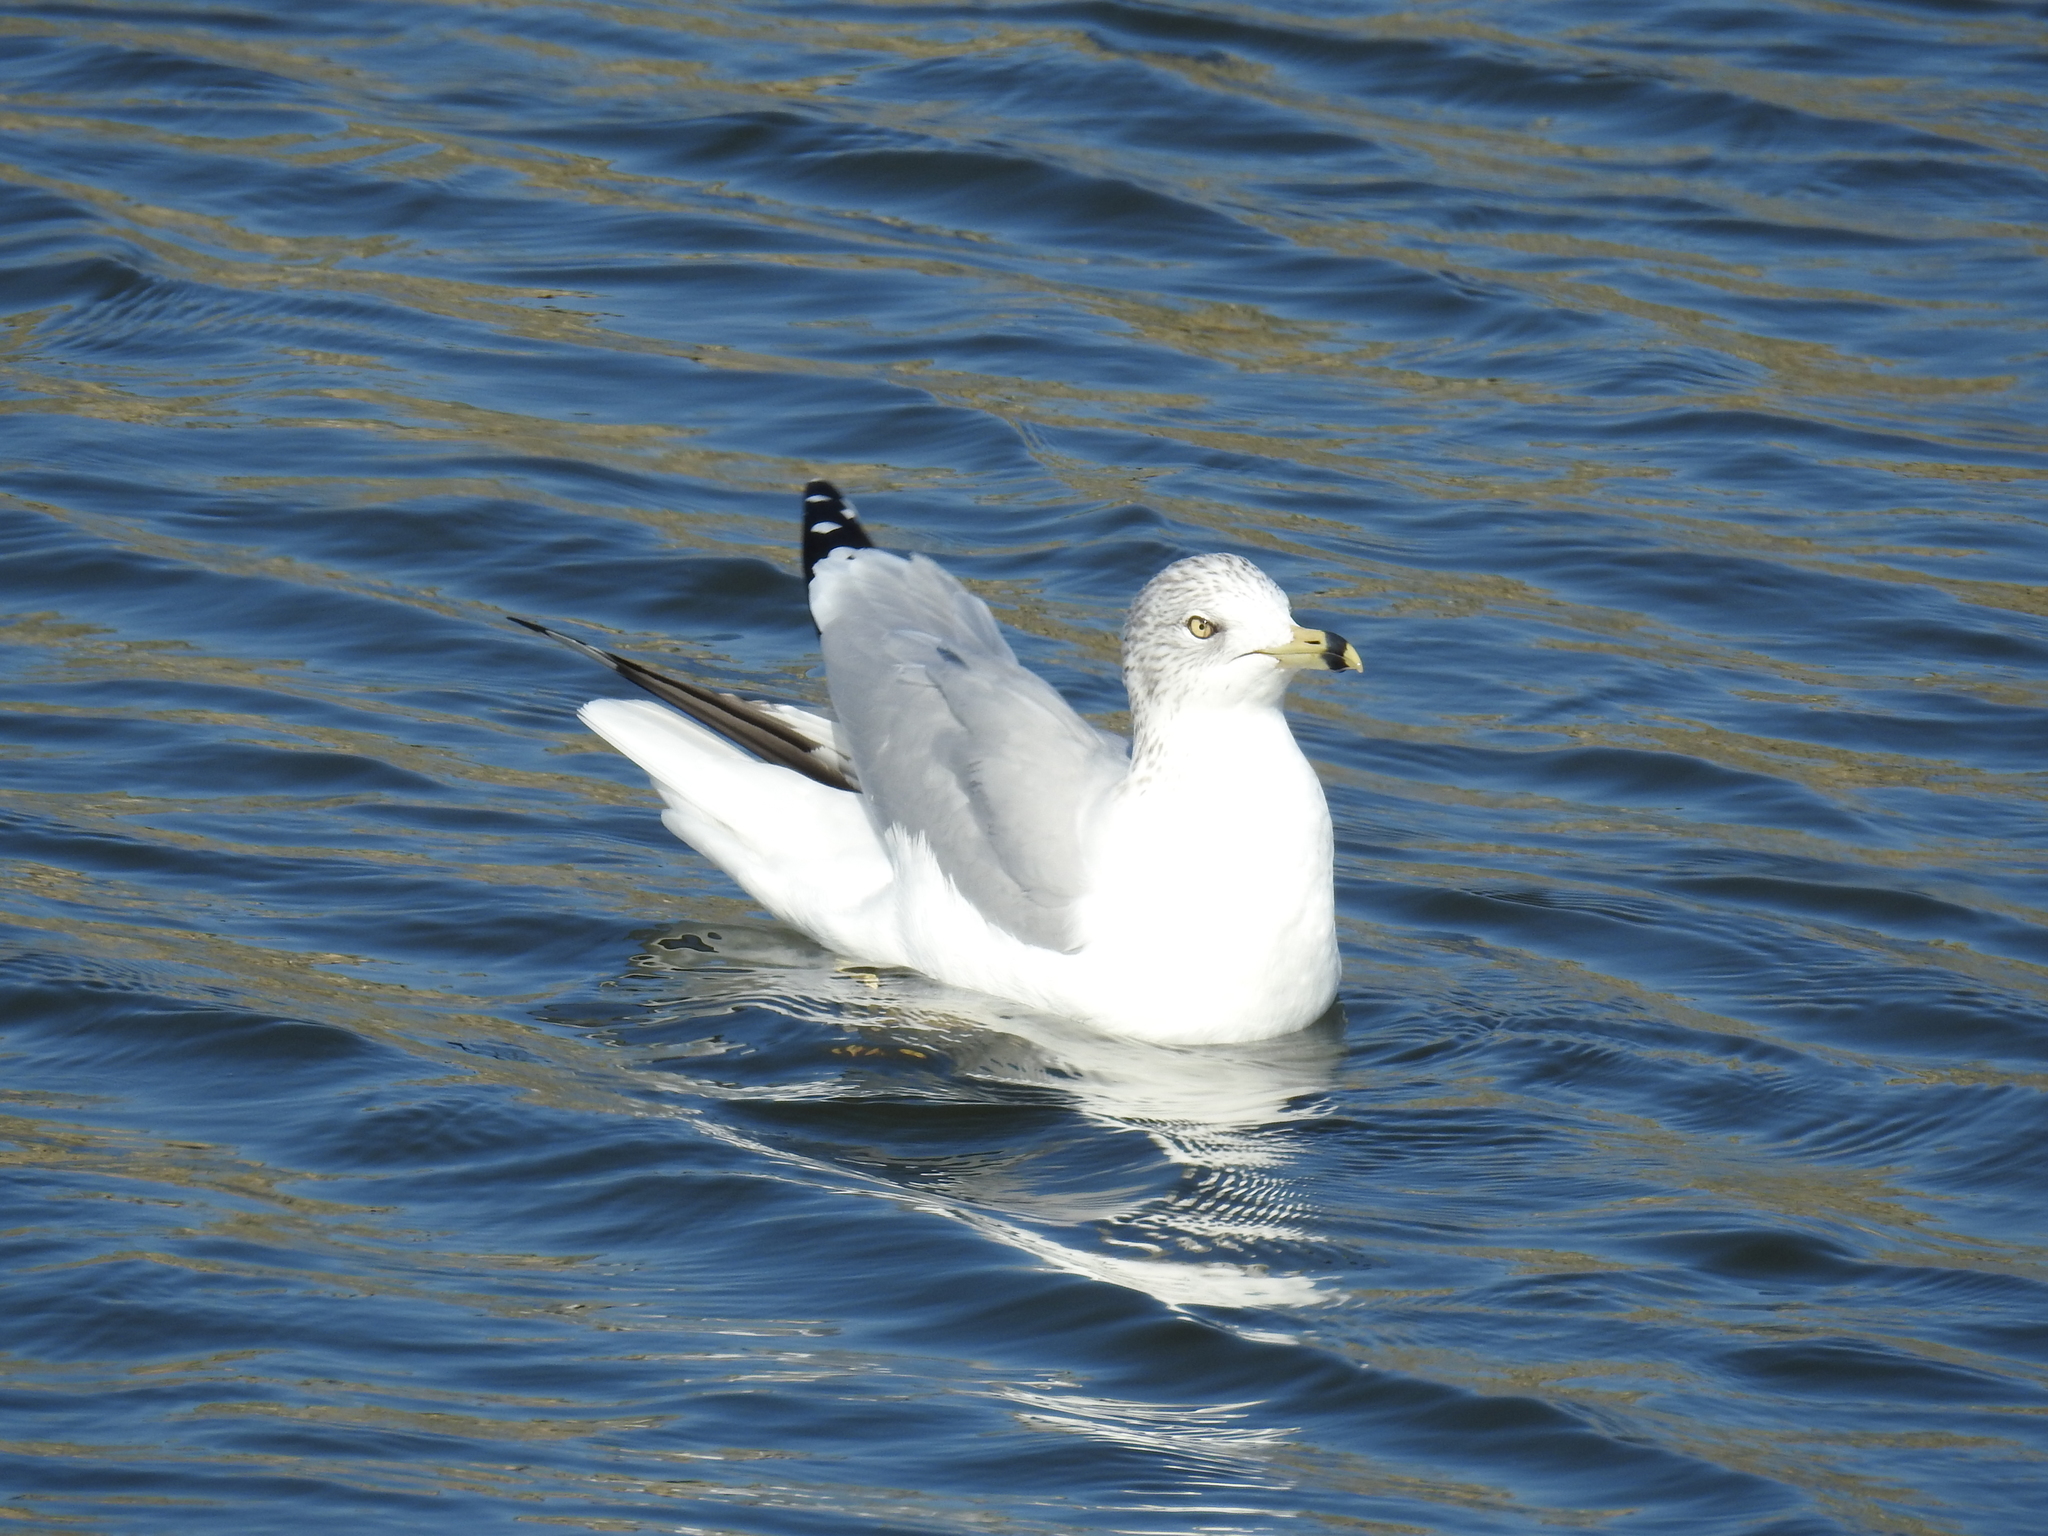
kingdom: Animalia
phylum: Chordata
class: Aves
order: Charadriiformes
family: Laridae
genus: Larus
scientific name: Larus delawarensis
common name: Ring-billed gull
